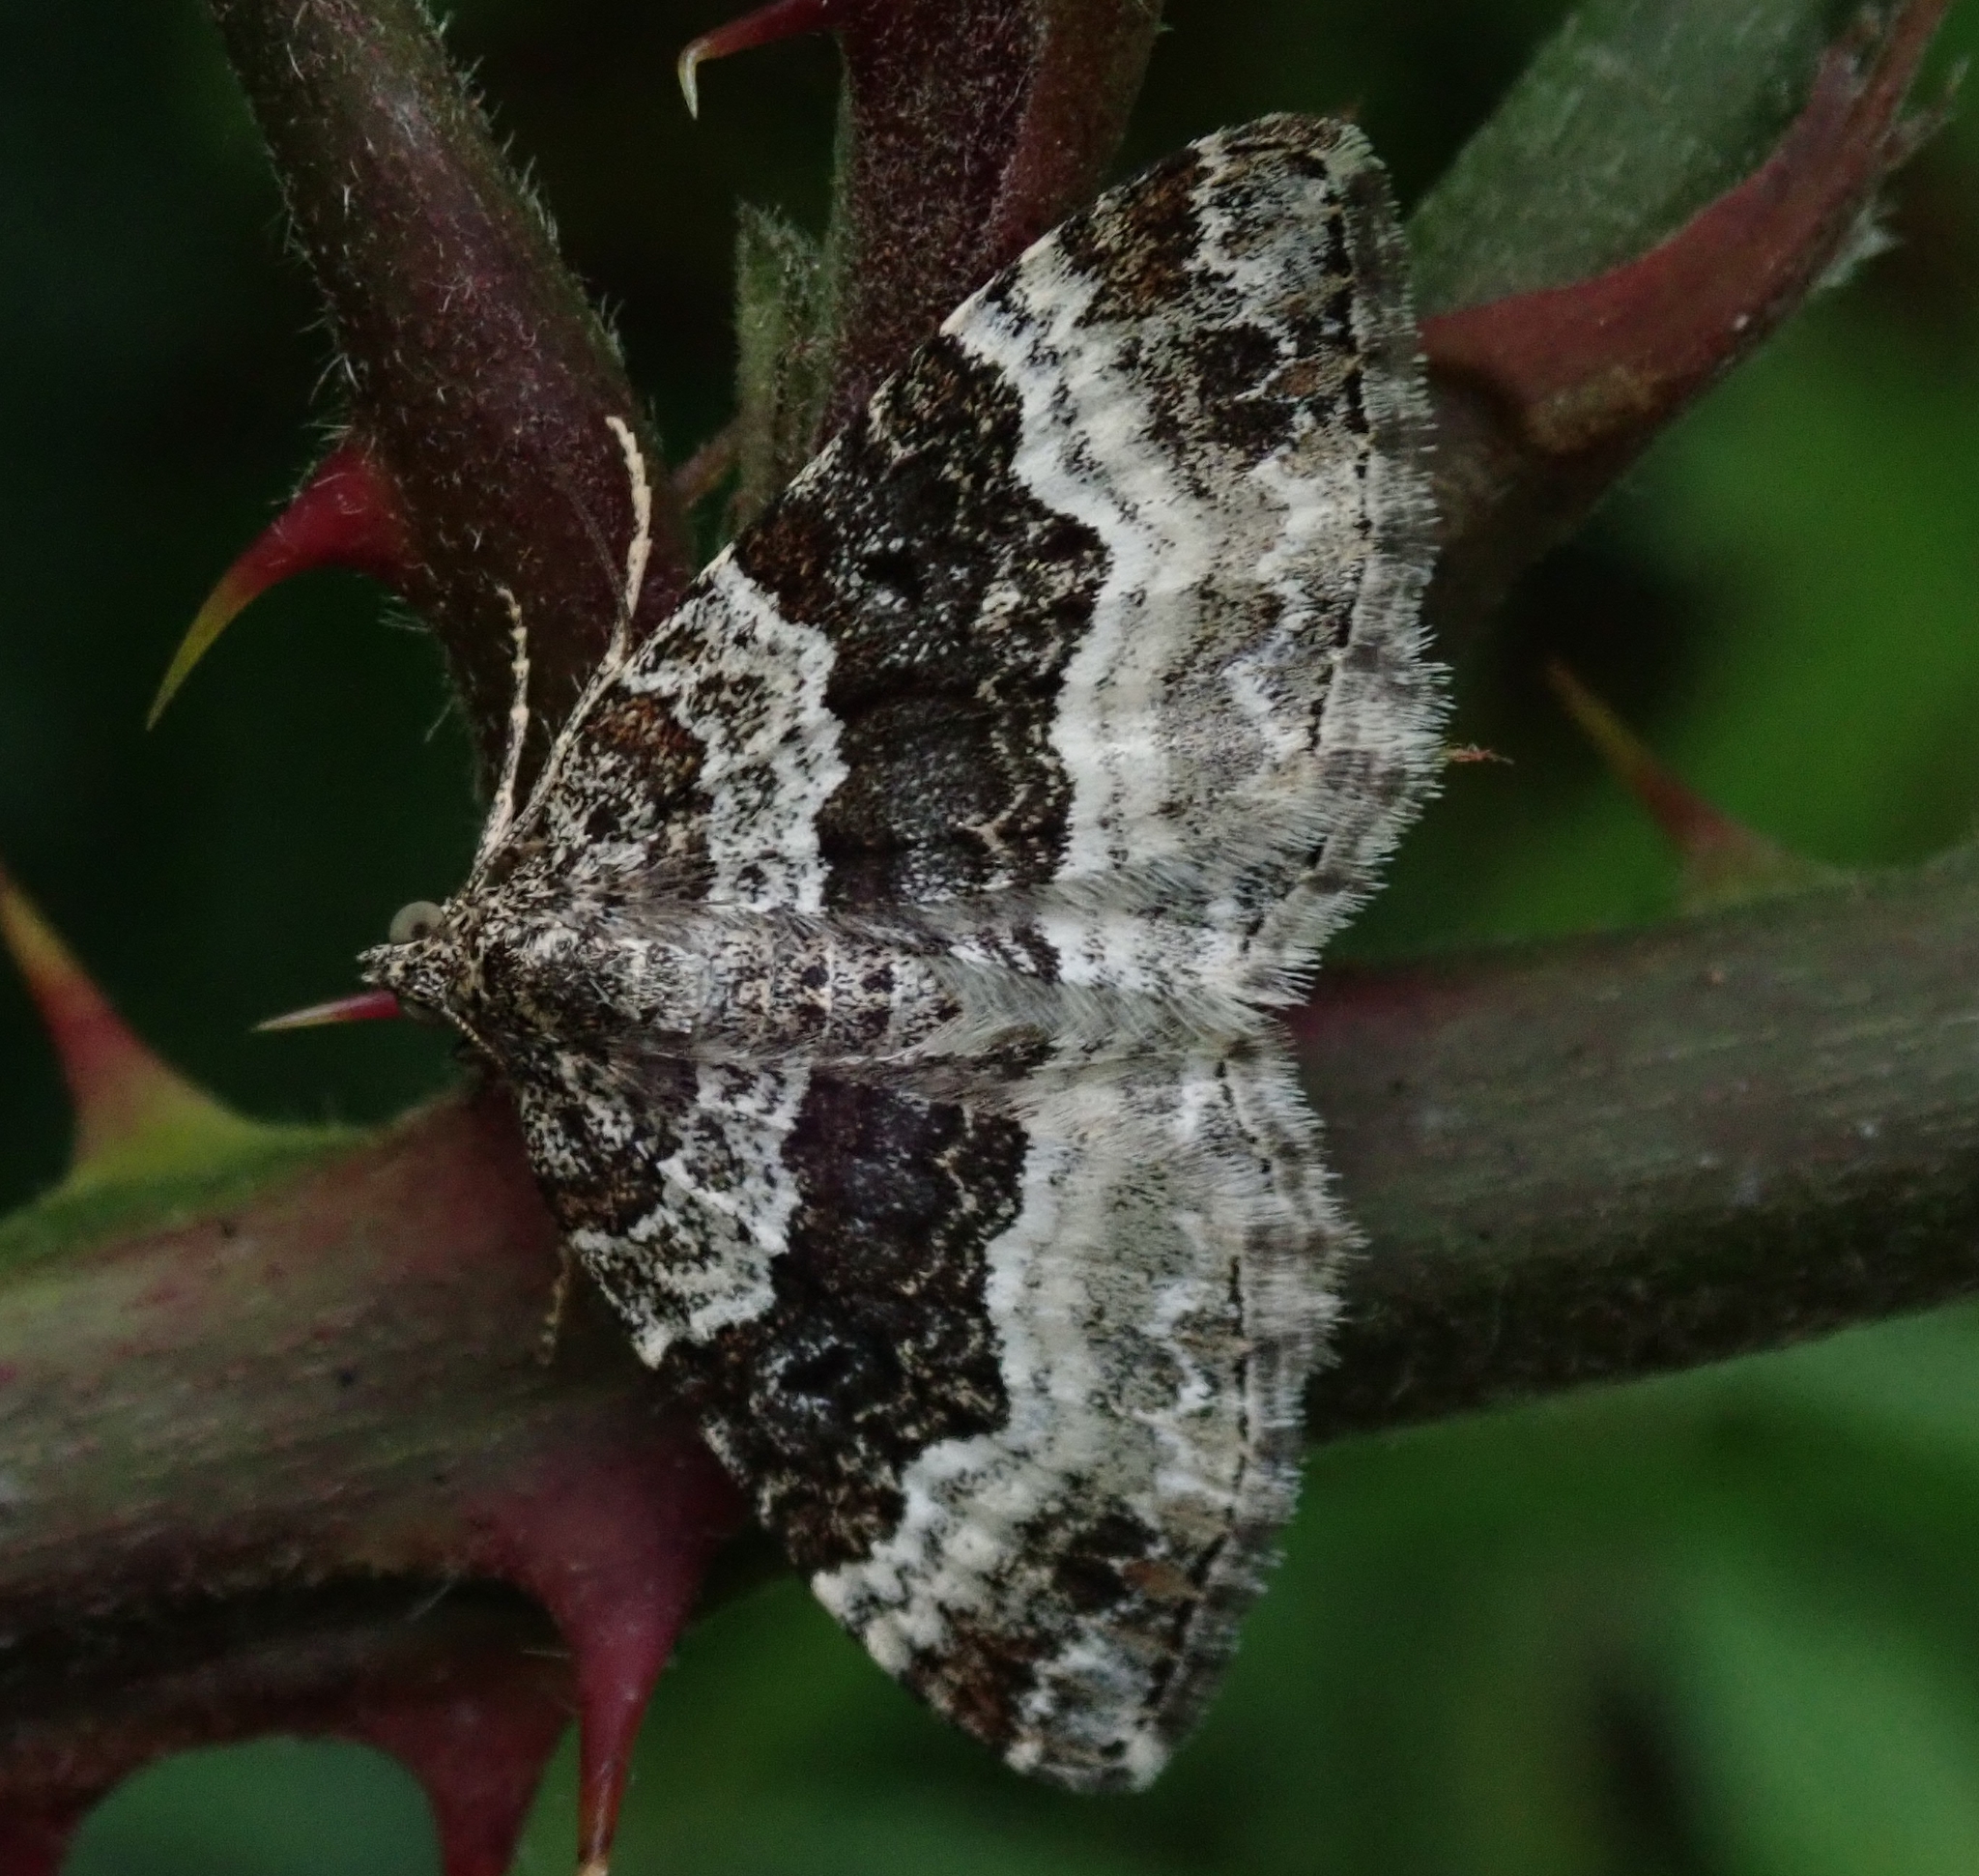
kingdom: Animalia
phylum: Arthropoda
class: Insecta
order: Lepidoptera
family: Geometridae
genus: Epirrhoe
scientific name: Epirrhoe alternata
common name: Common carpet
